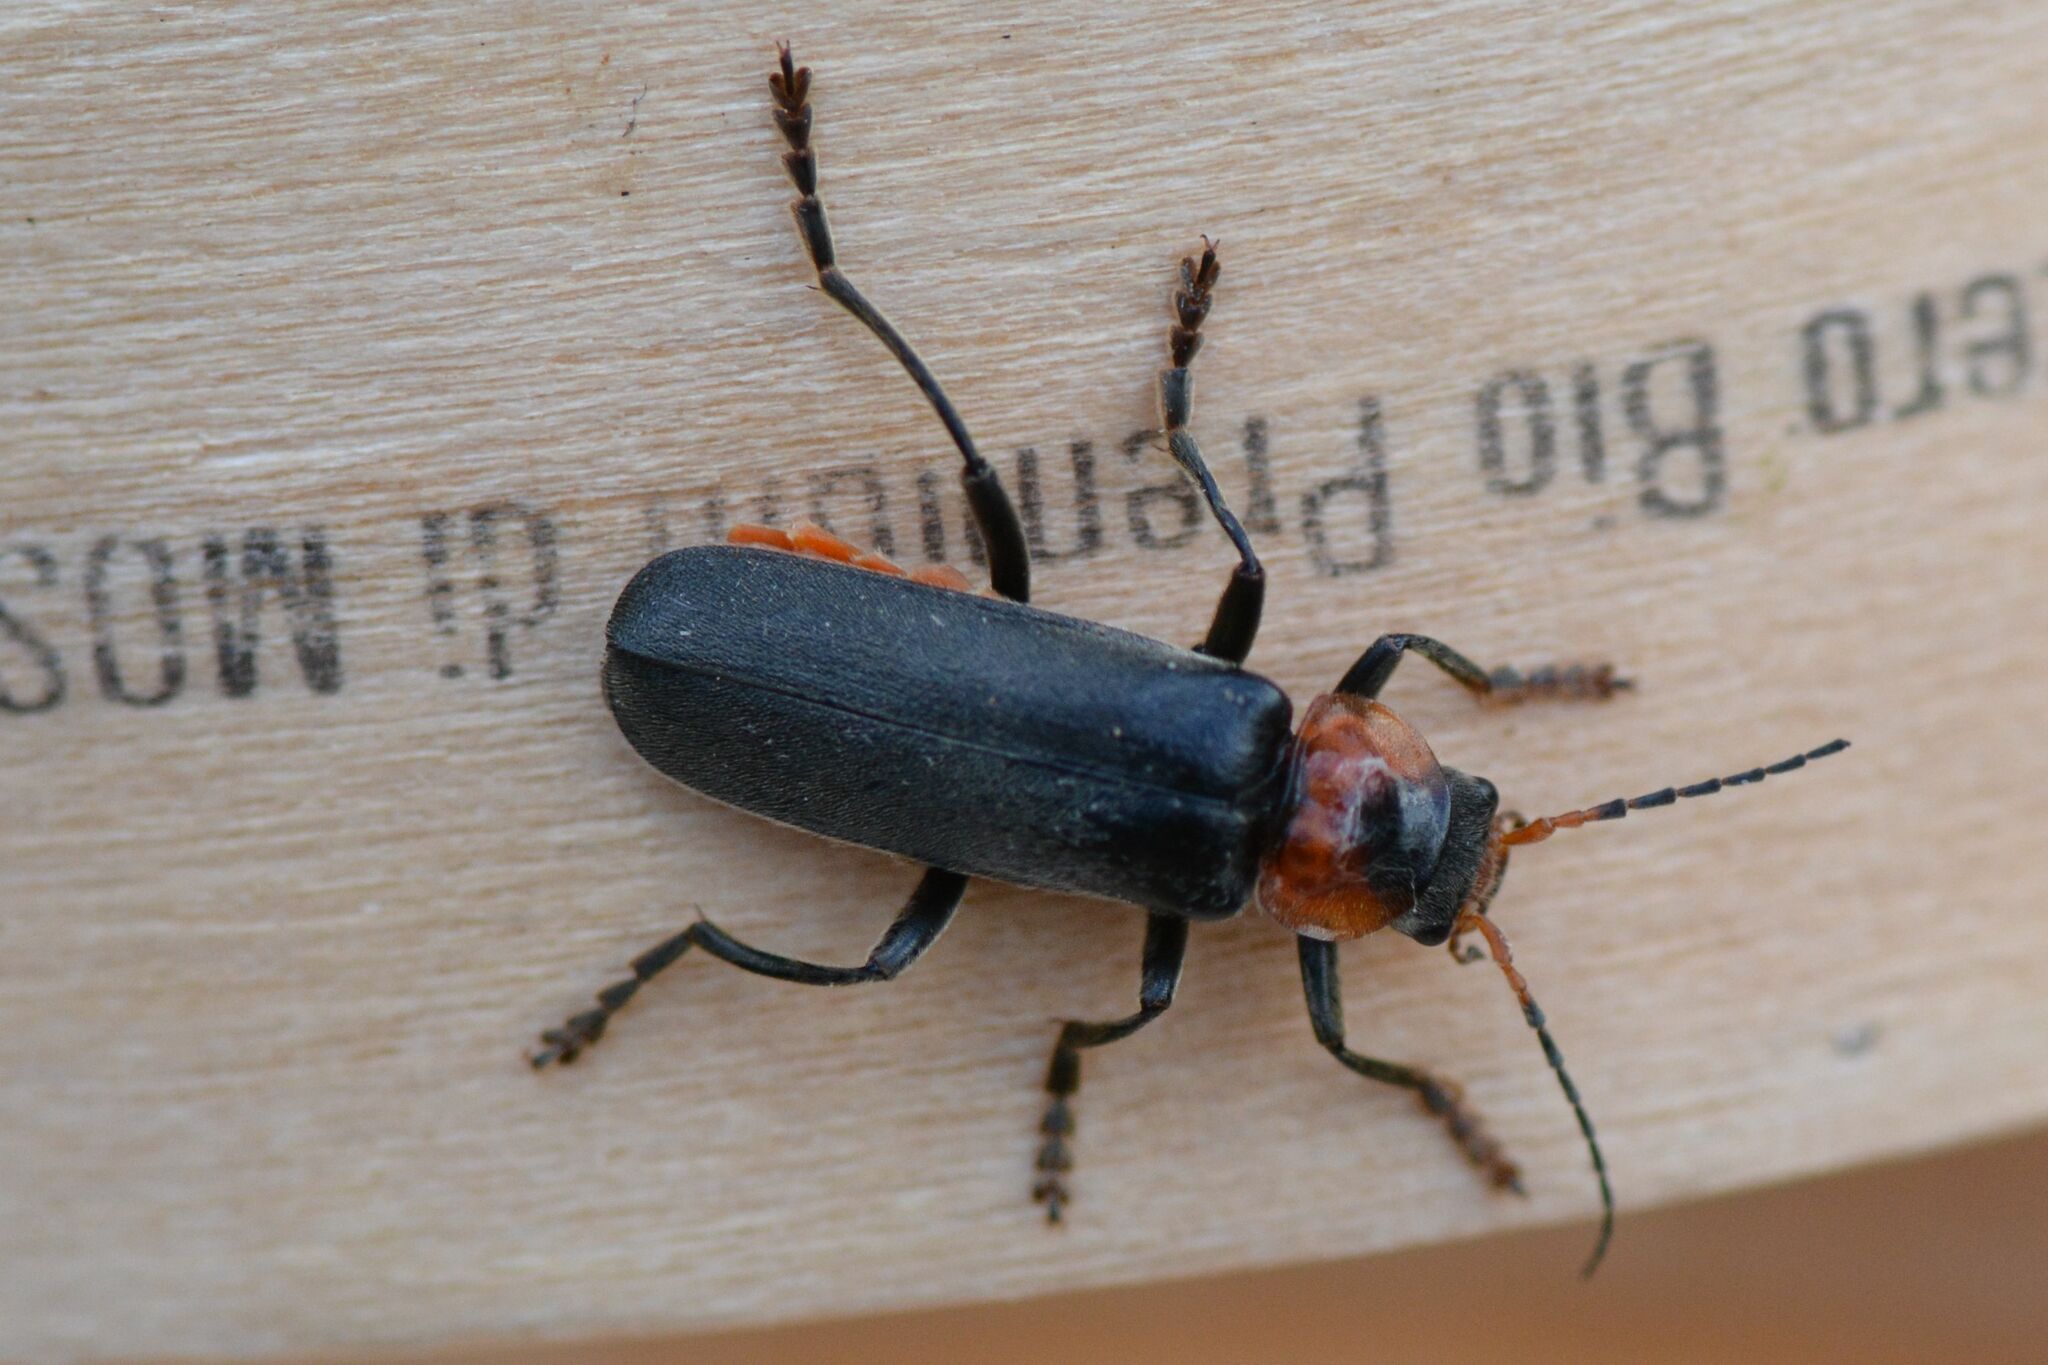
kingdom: Animalia
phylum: Arthropoda
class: Insecta
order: Coleoptera
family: Cantharidae
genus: Cantharis
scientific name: Cantharis fusca
